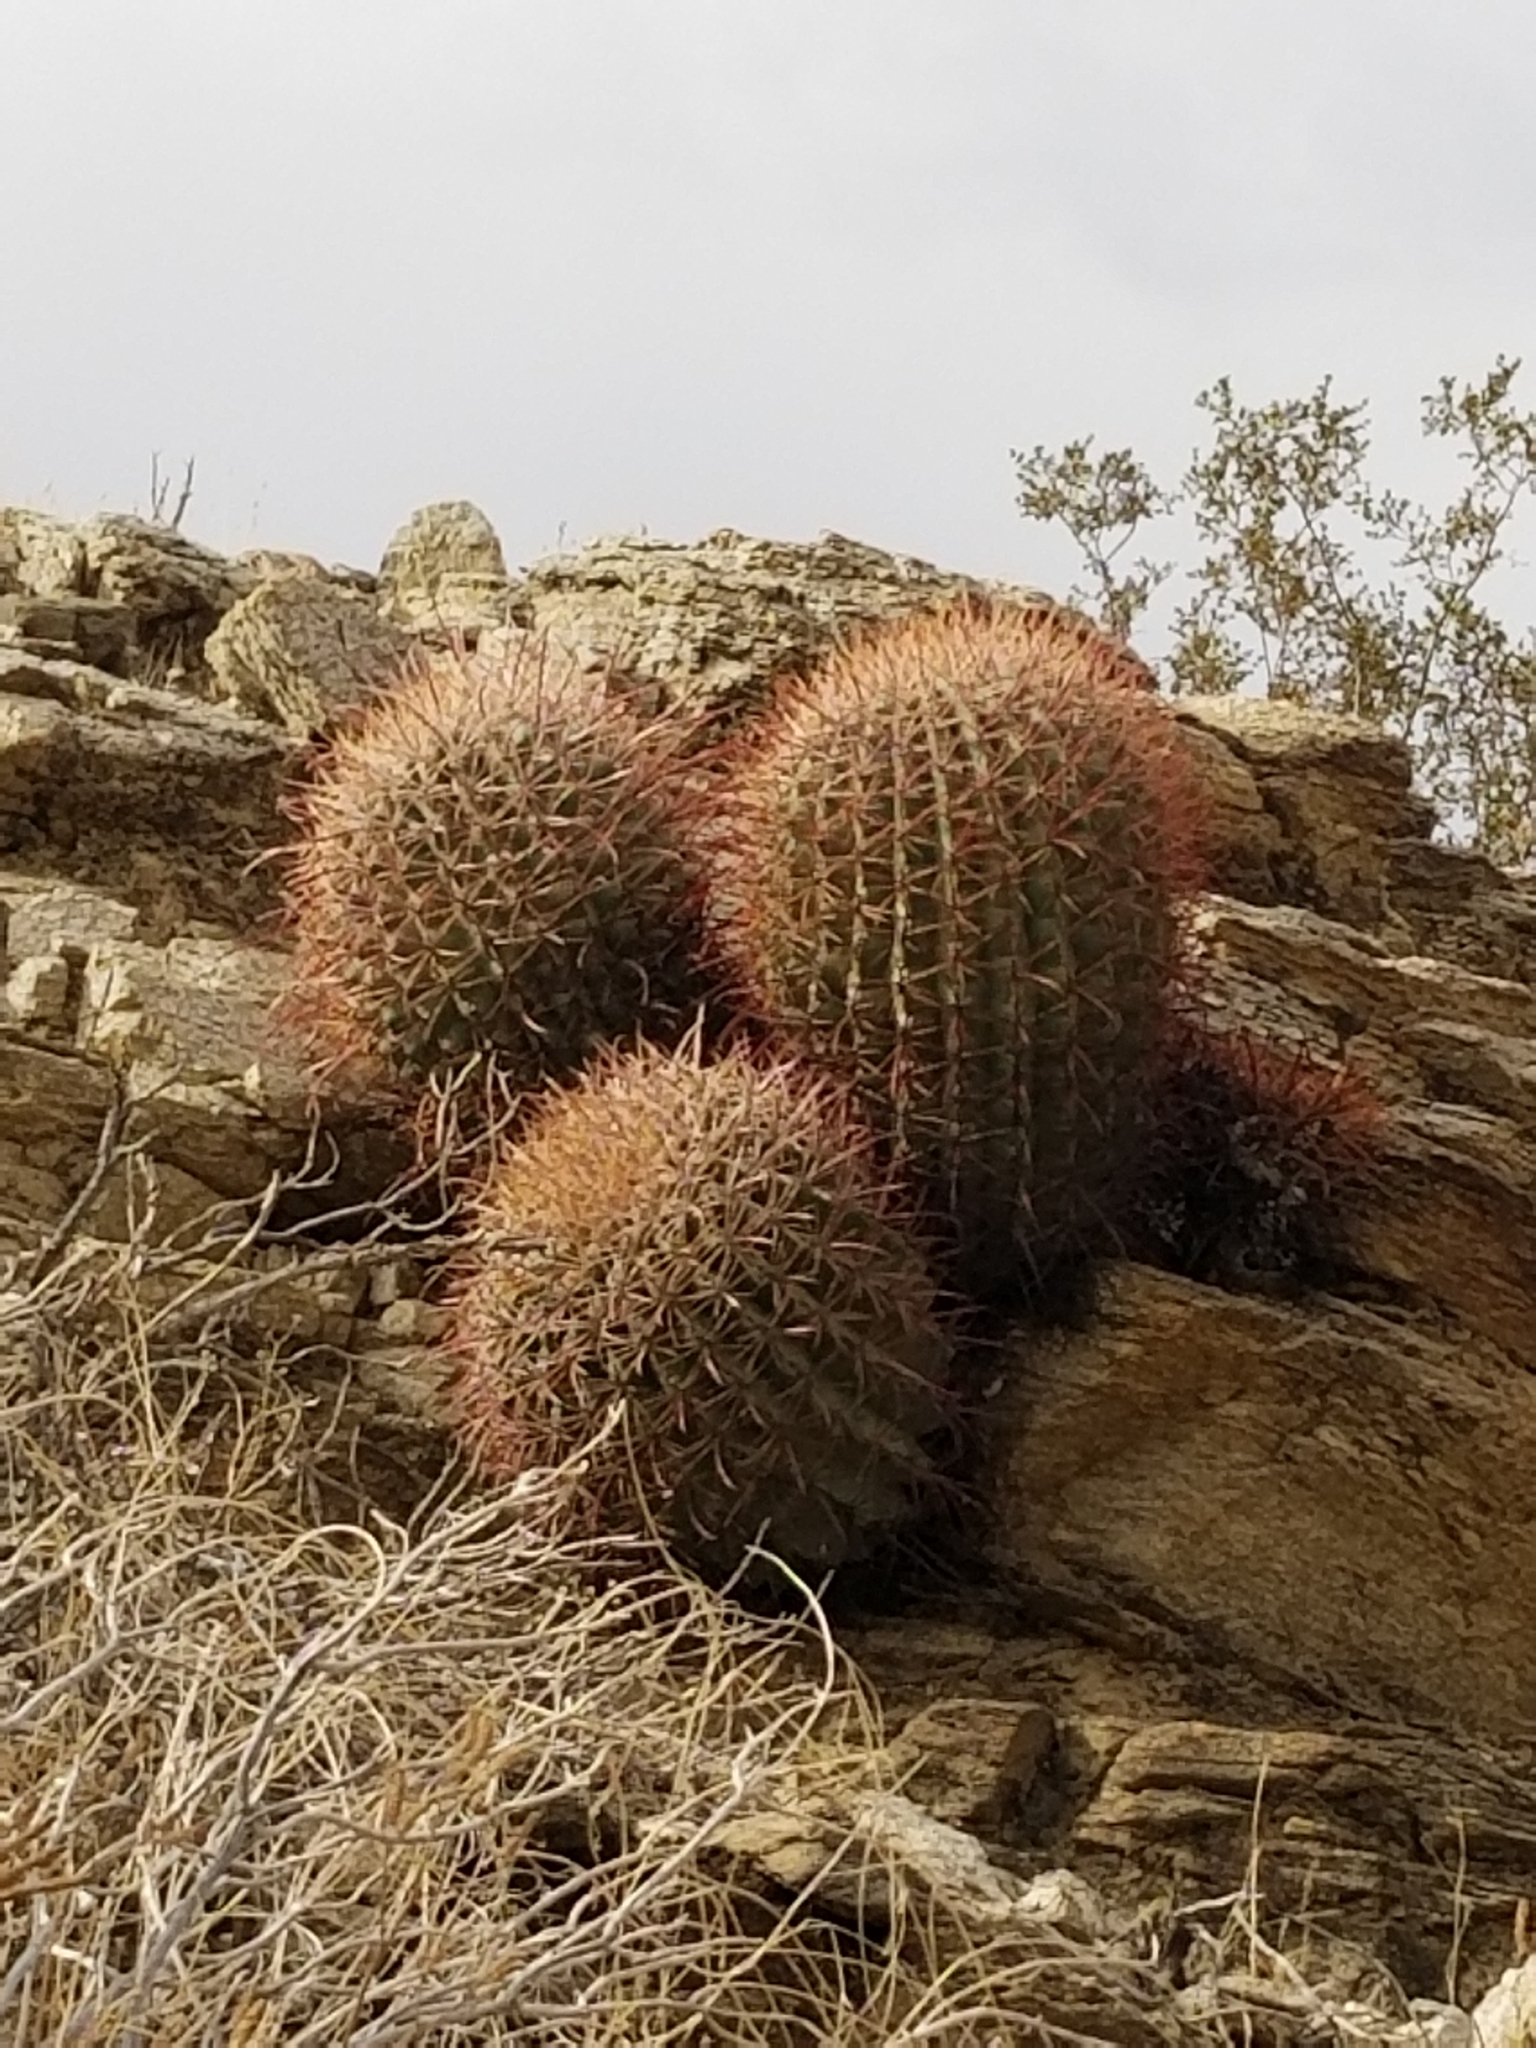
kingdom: Plantae
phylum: Tracheophyta
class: Magnoliopsida
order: Caryophyllales
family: Cactaceae
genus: Ferocactus
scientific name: Ferocactus cylindraceus
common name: California barrel cactus
